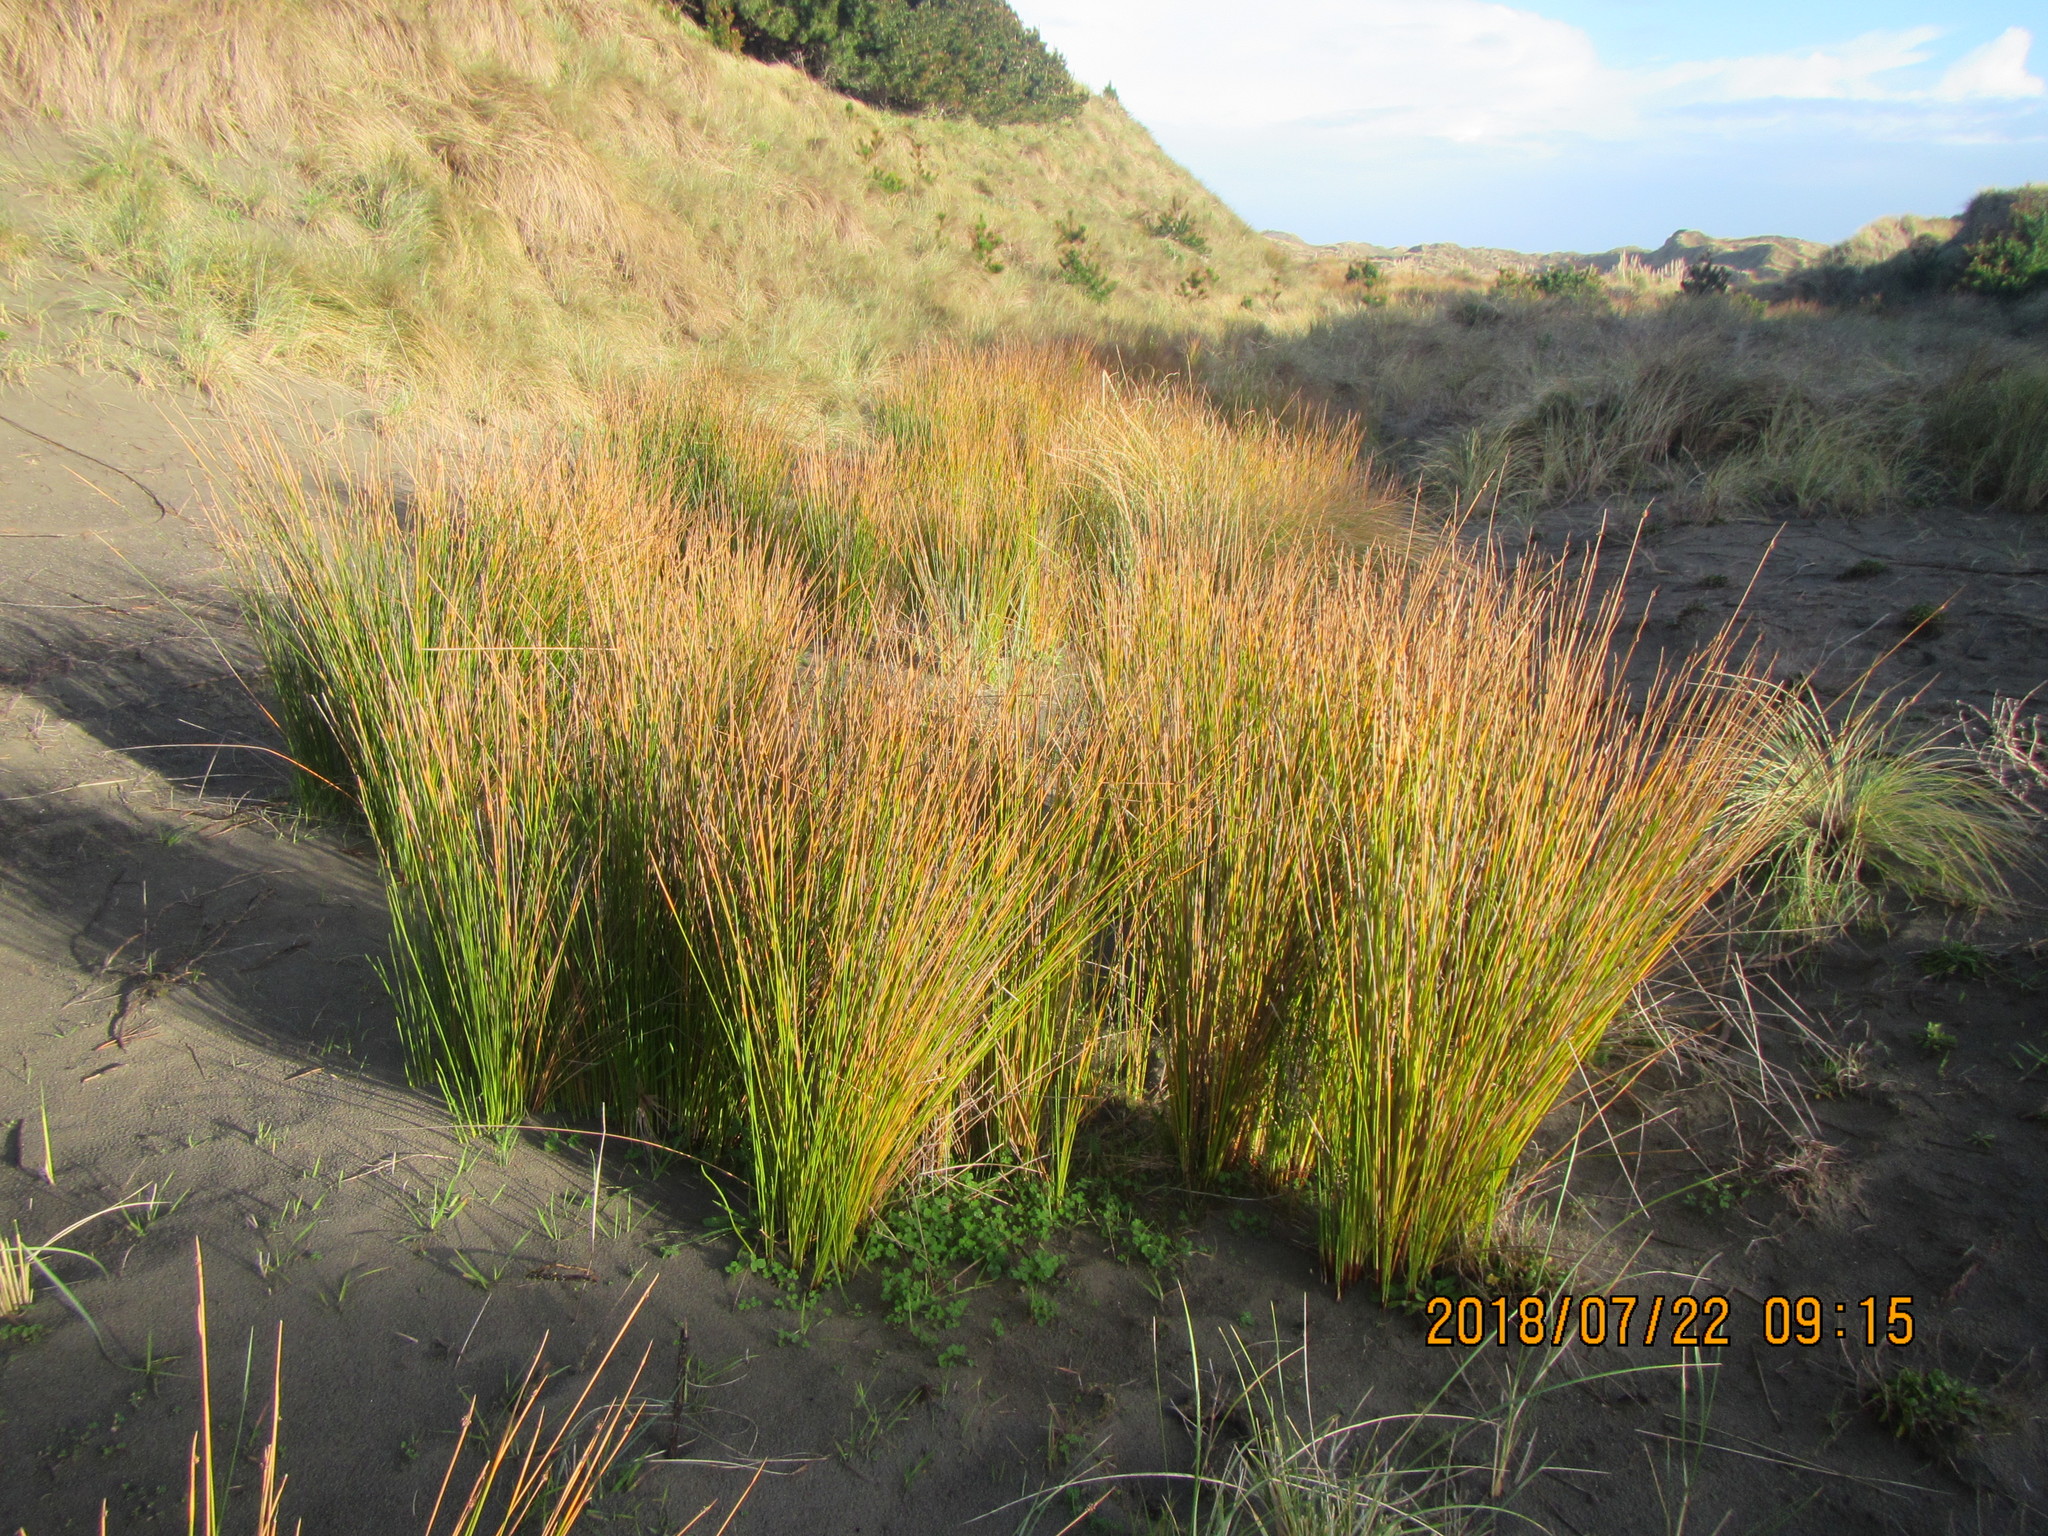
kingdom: Plantae
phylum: Tracheophyta
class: Liliopsida
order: Poales
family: Cyperaceae
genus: Ficinia
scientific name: Ficinia nodosa
